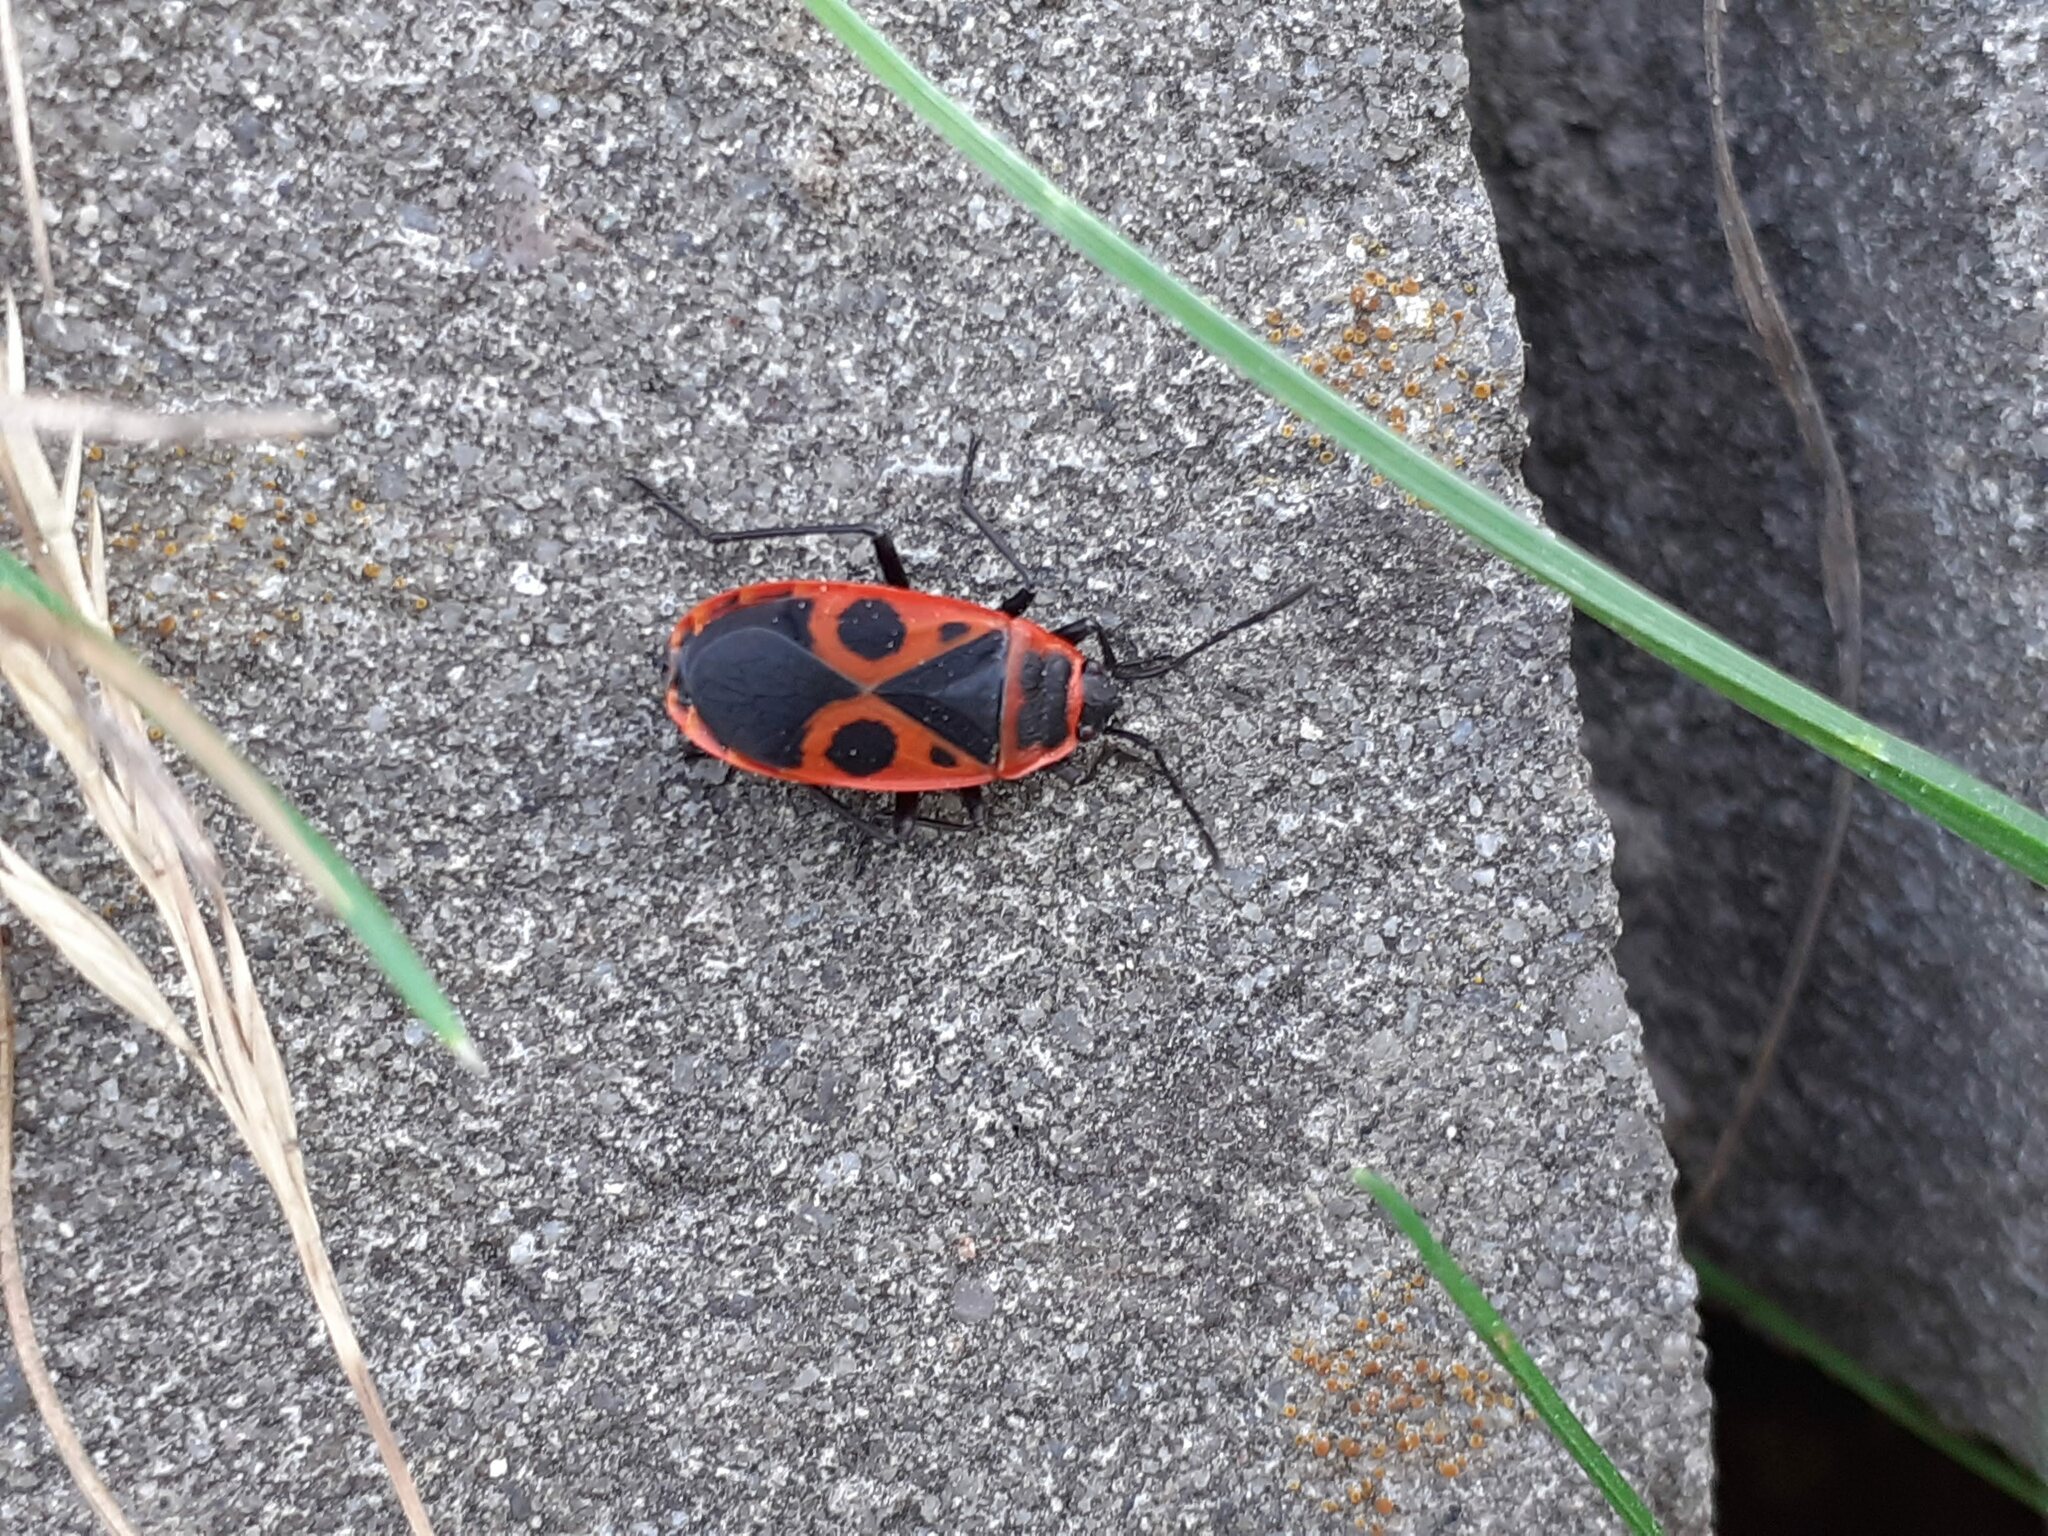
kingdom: Animalia
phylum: Arthropoda
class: Insecta
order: Hemiptera
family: Pyrrhocoridae
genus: Pyrrhocoris
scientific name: Pyrrhocoris apterus
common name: Firebug
